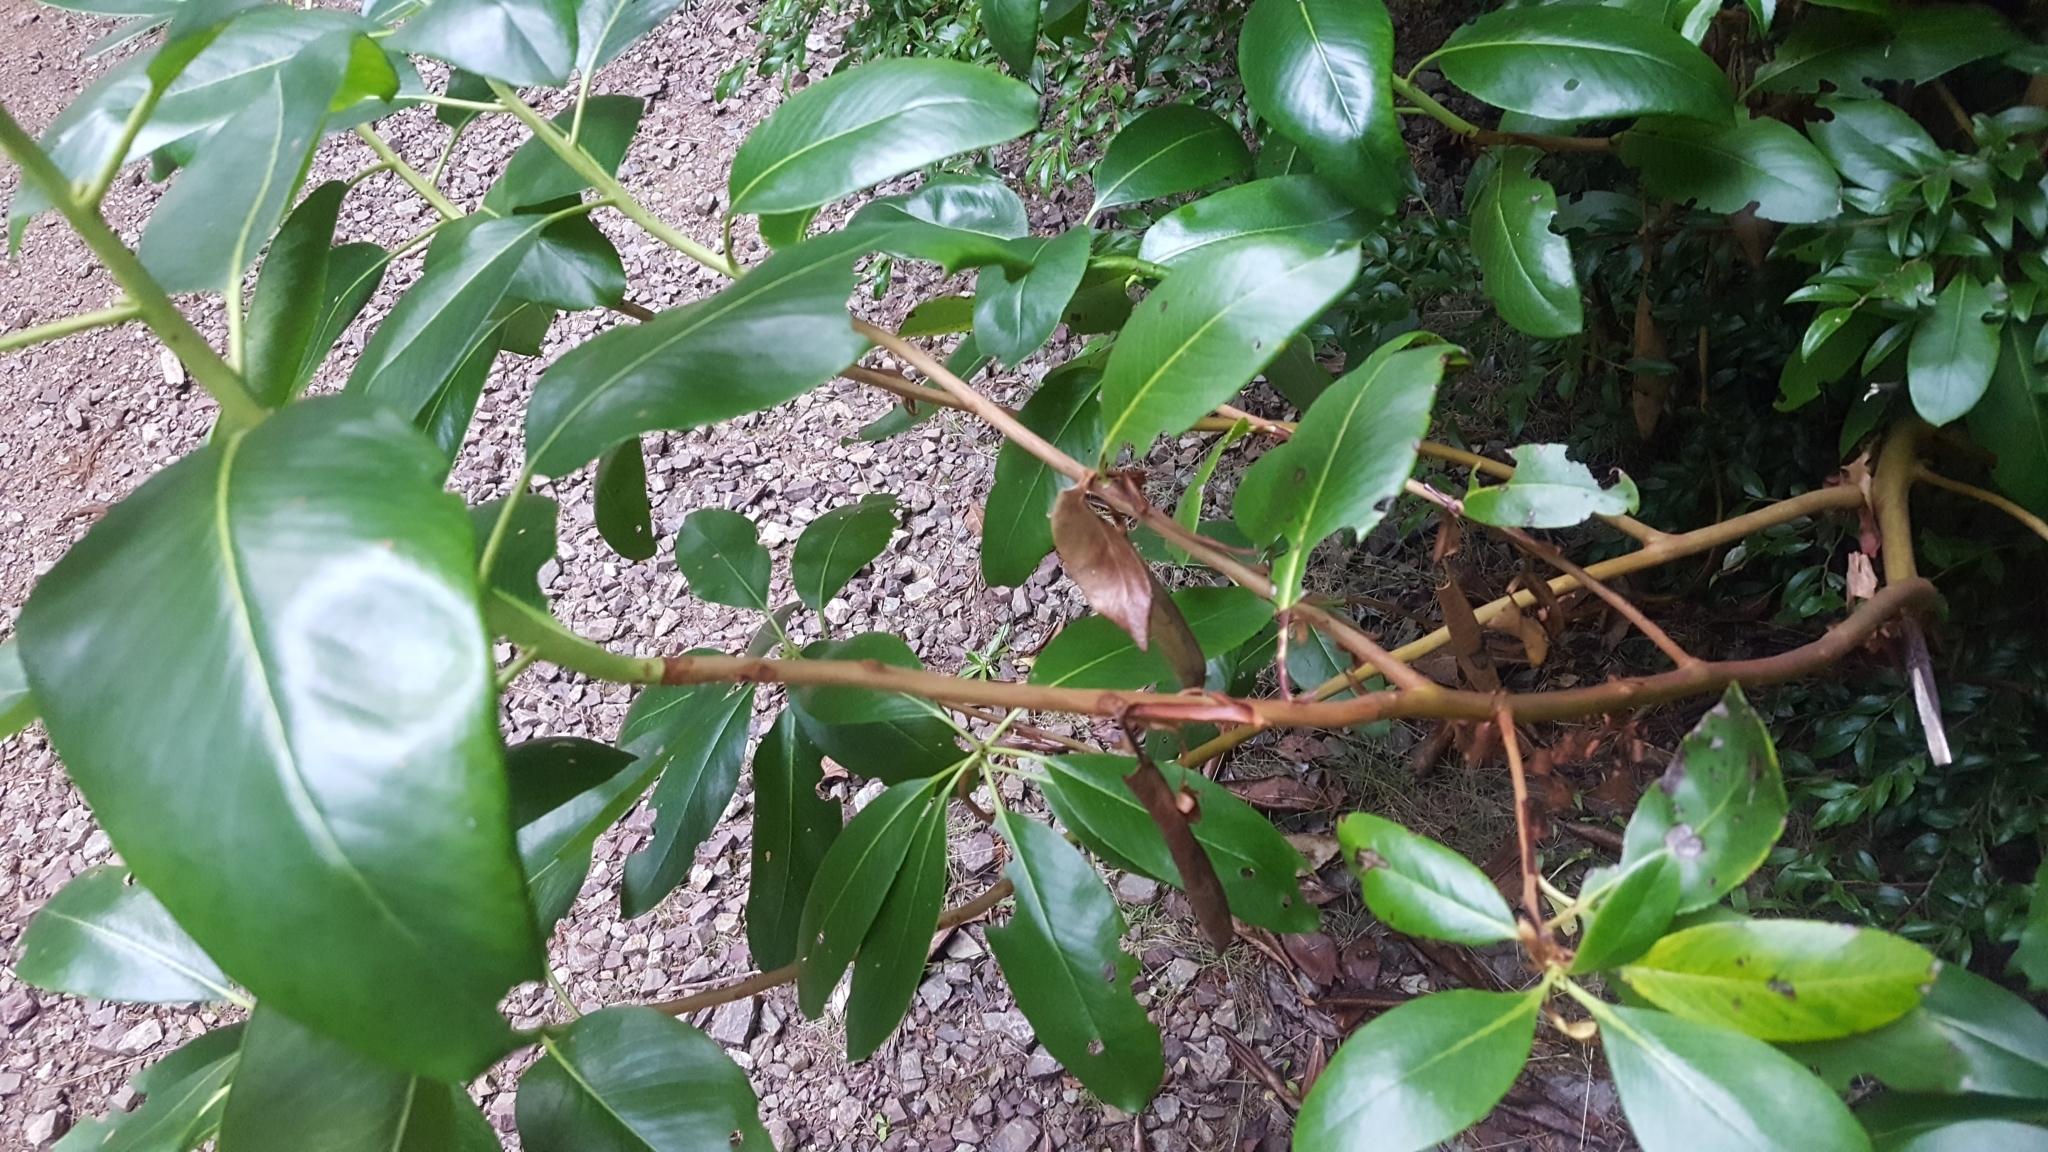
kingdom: Plantae
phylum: Tracheophyta
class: Magnoliopsida
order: Ericales
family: Ericaceae
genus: Arbutus
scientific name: Arbutus menziesii
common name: Pacific madrone
